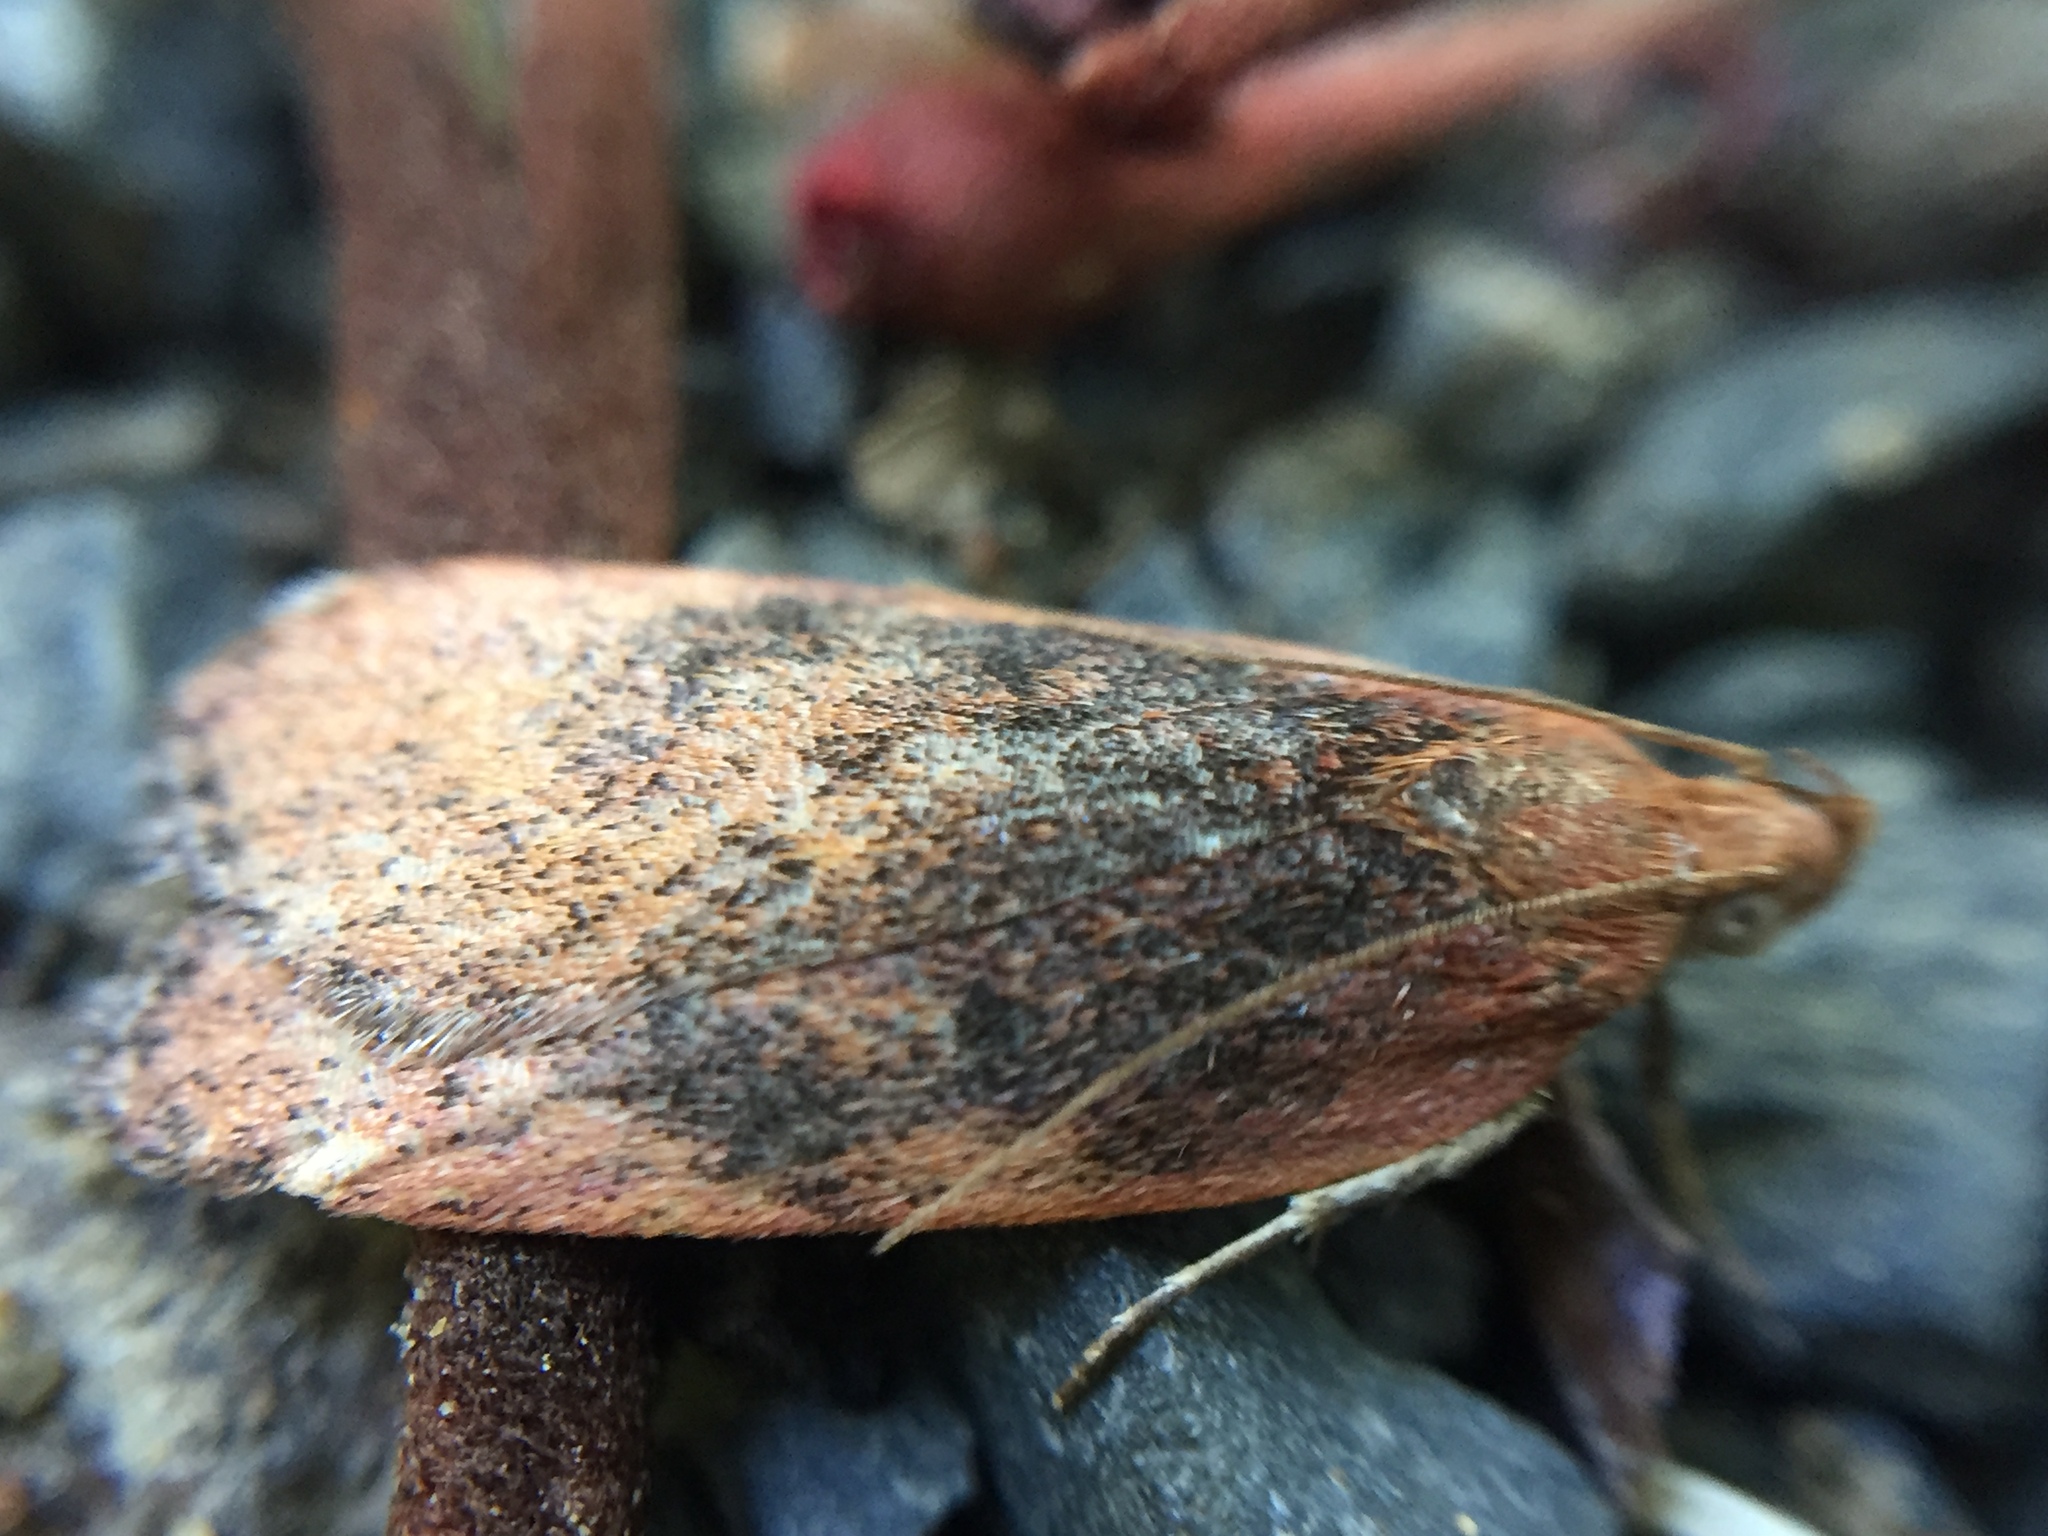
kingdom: Animalia
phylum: Arthropoda
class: Insecta
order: Lepidoptera
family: Depressariidae
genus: Phaeosaces
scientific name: Phaeosaces coarctatella
